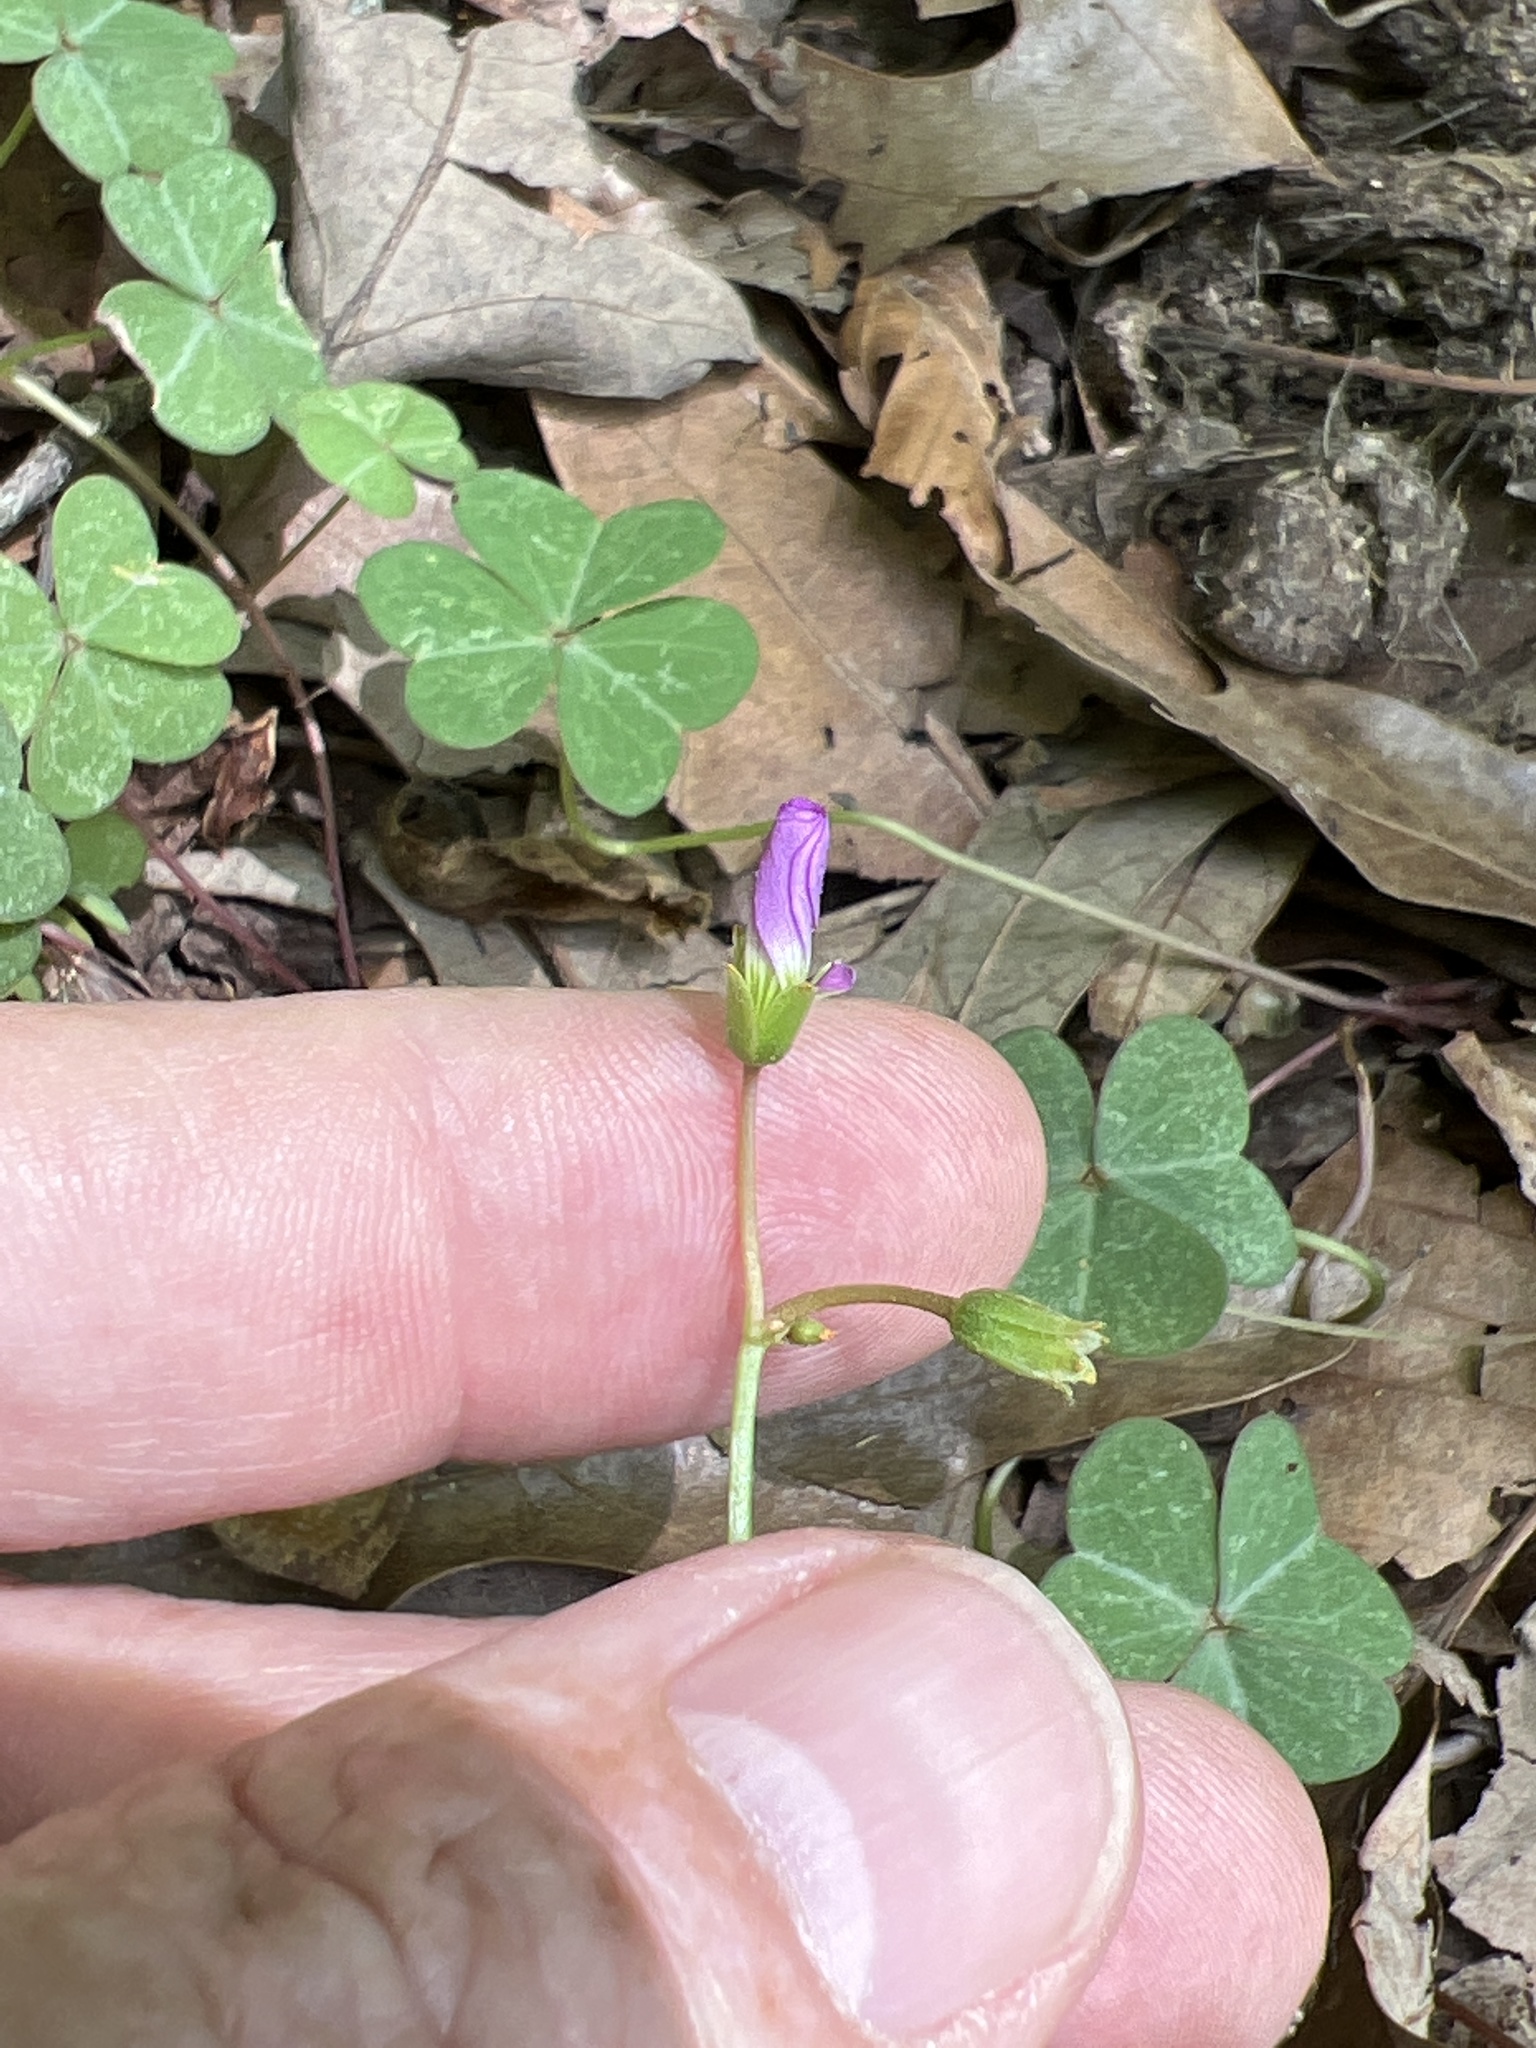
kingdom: Plantae
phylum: Tracheophyta
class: Magnoliopsida
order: Oxalidales
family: Oxalidaceae
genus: Oxalis
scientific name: Oxalis violacea
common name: Violet wood-sorrel
